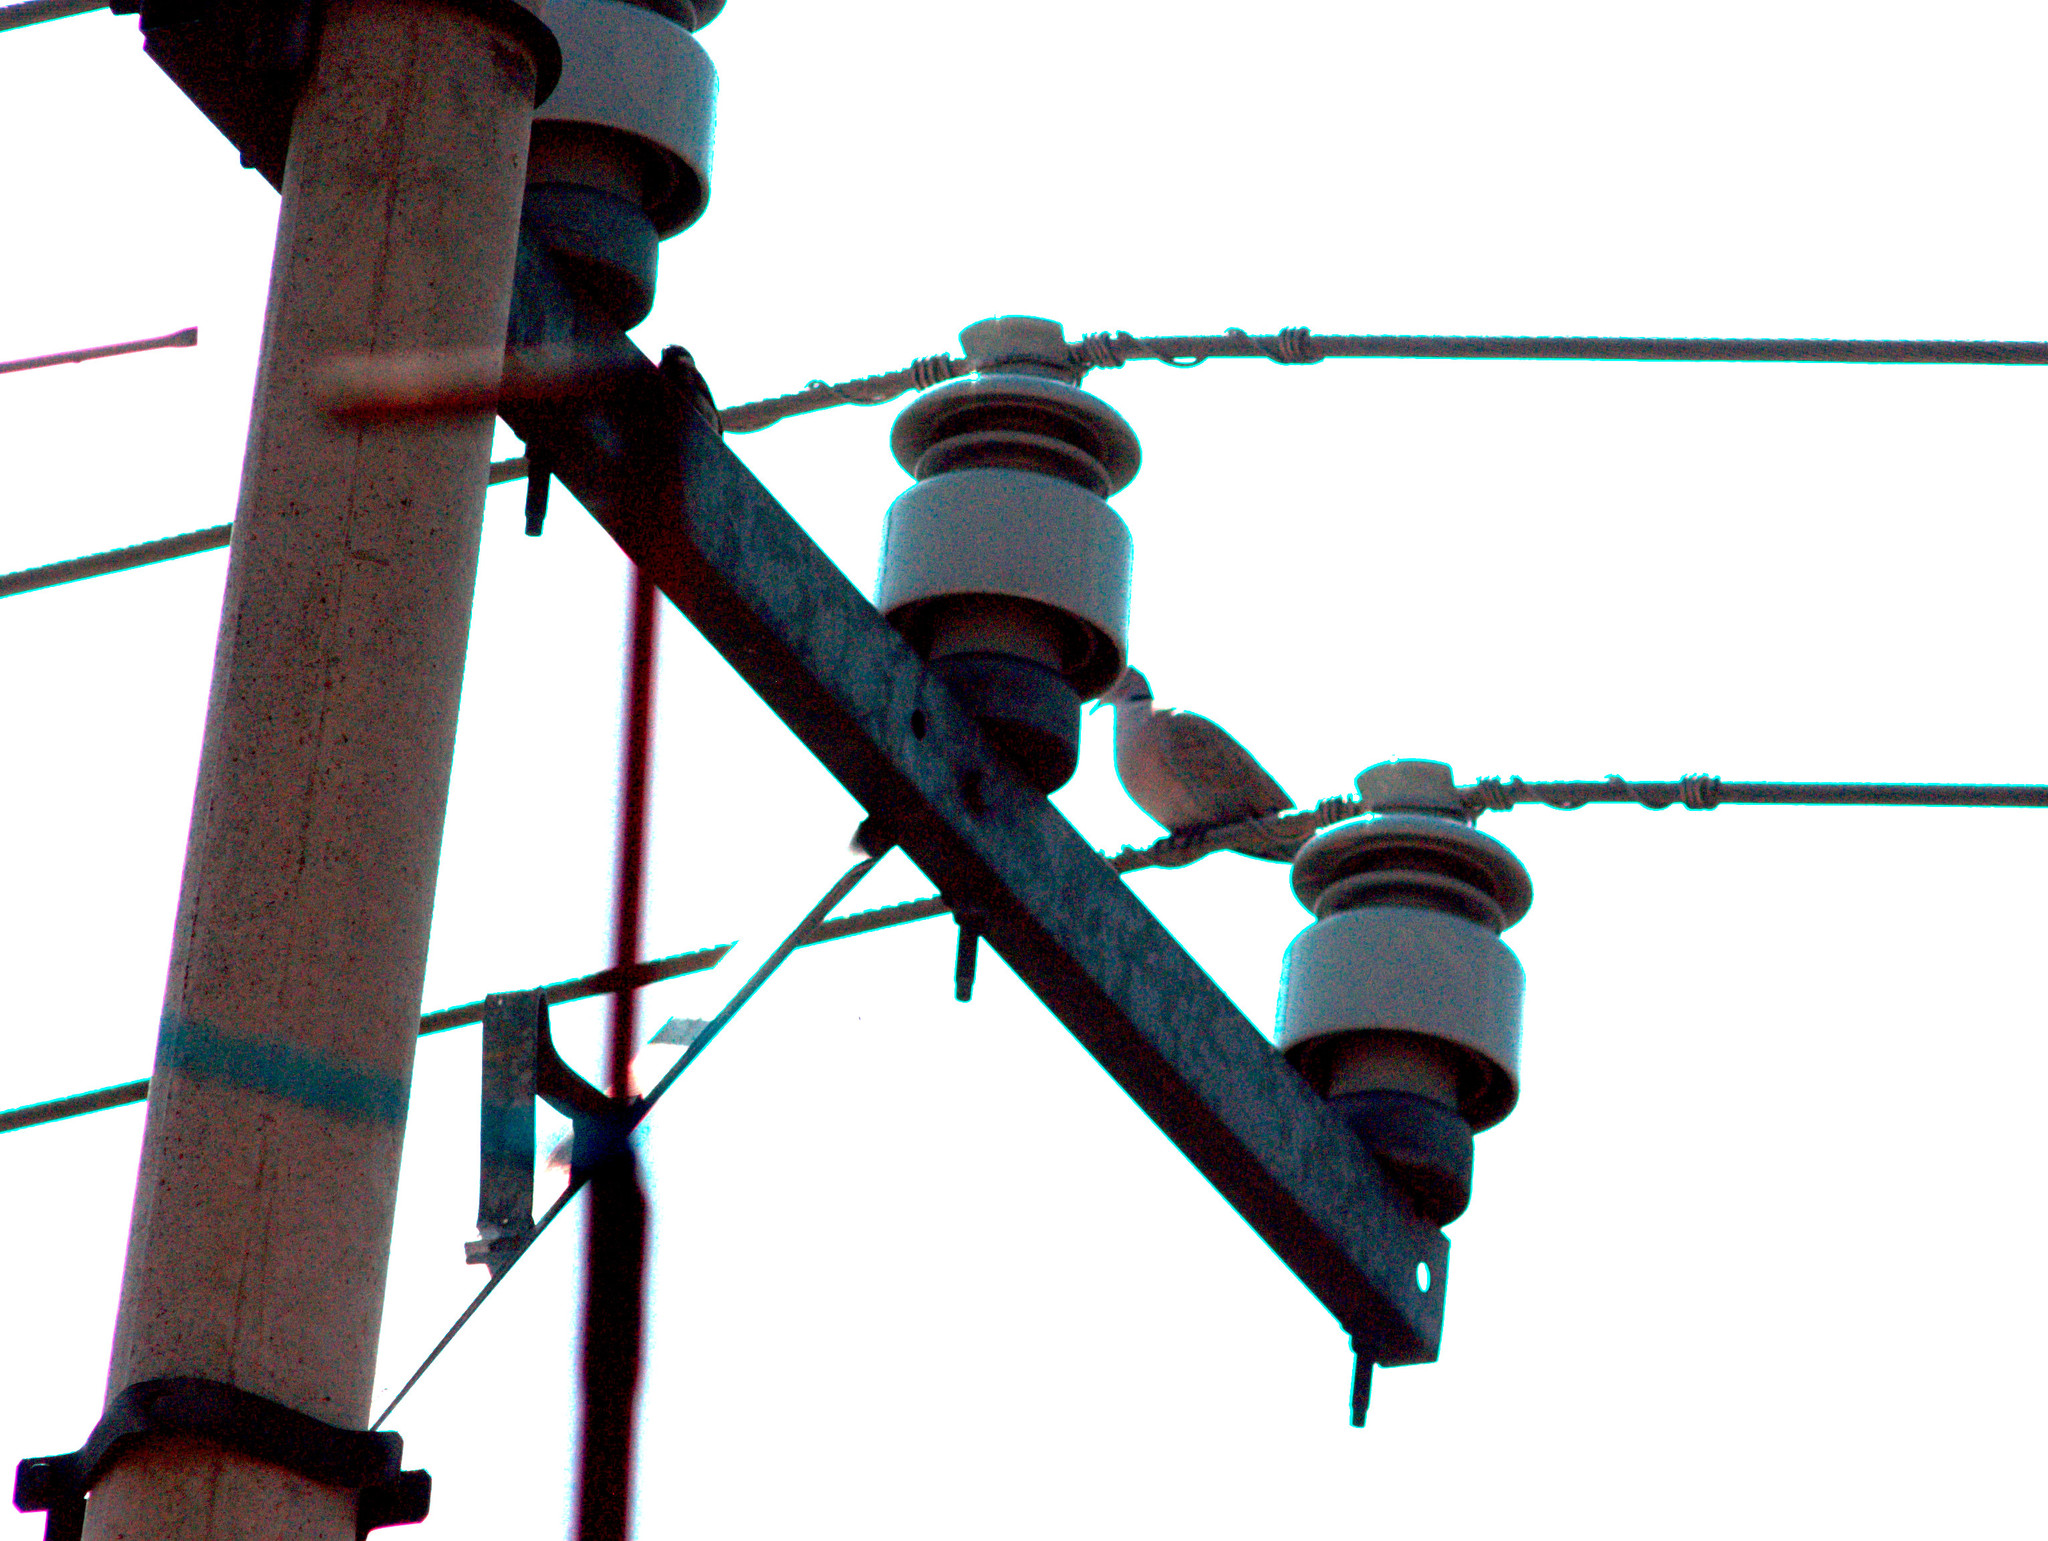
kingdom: Animalia
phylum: Chordata
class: Aves
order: Columbiformes
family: Columbidae
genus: Streptopelia
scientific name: Streptopelia decaocto
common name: Eurasian collared dove
